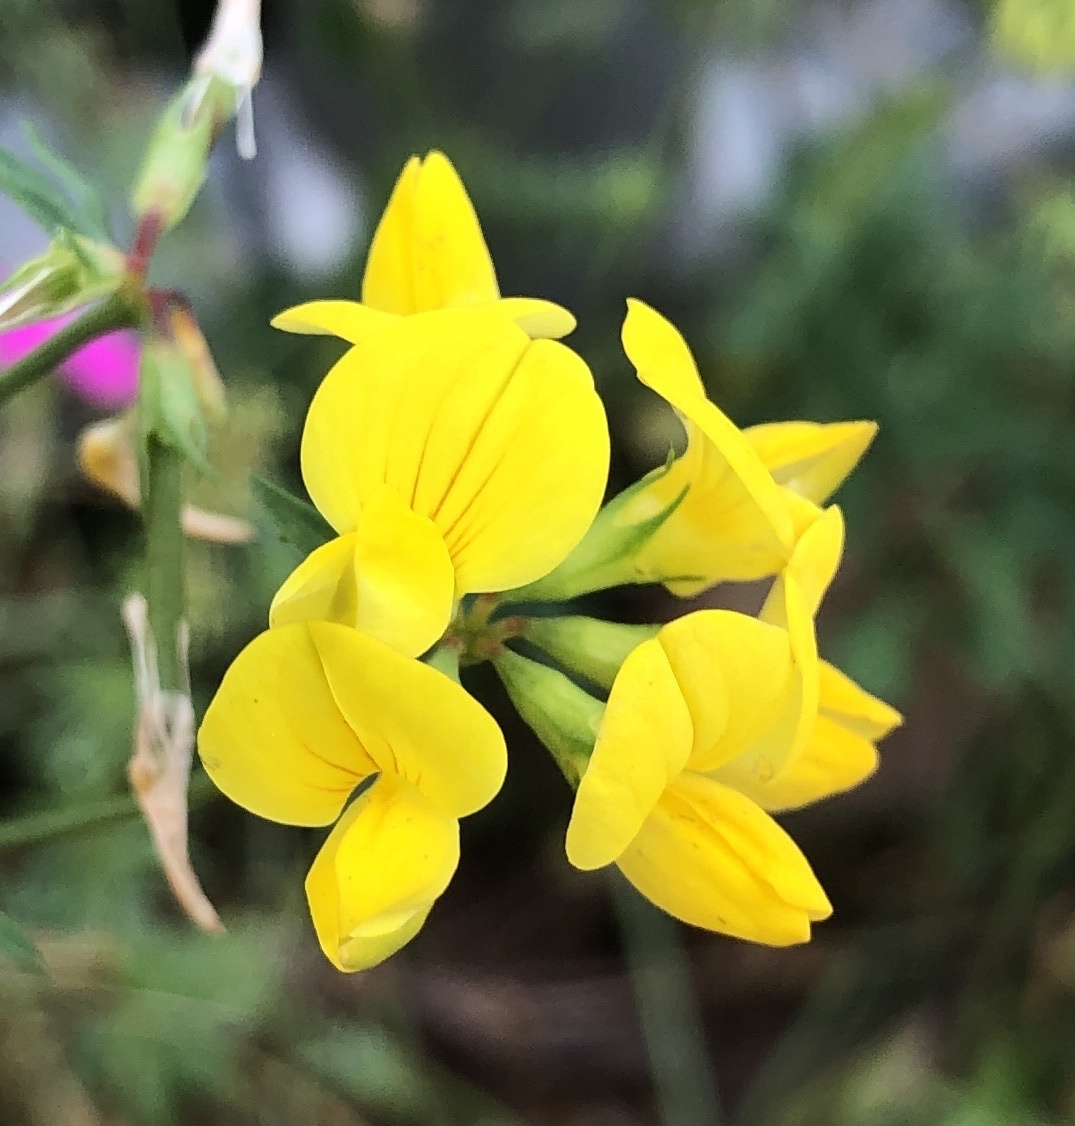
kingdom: Plantae
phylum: Tracheophyta
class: Magnoliopsida
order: Fabales
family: Fabaceae
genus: Lotus
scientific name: Lotus corniculatus
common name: Common bird's-foot-trefoil
